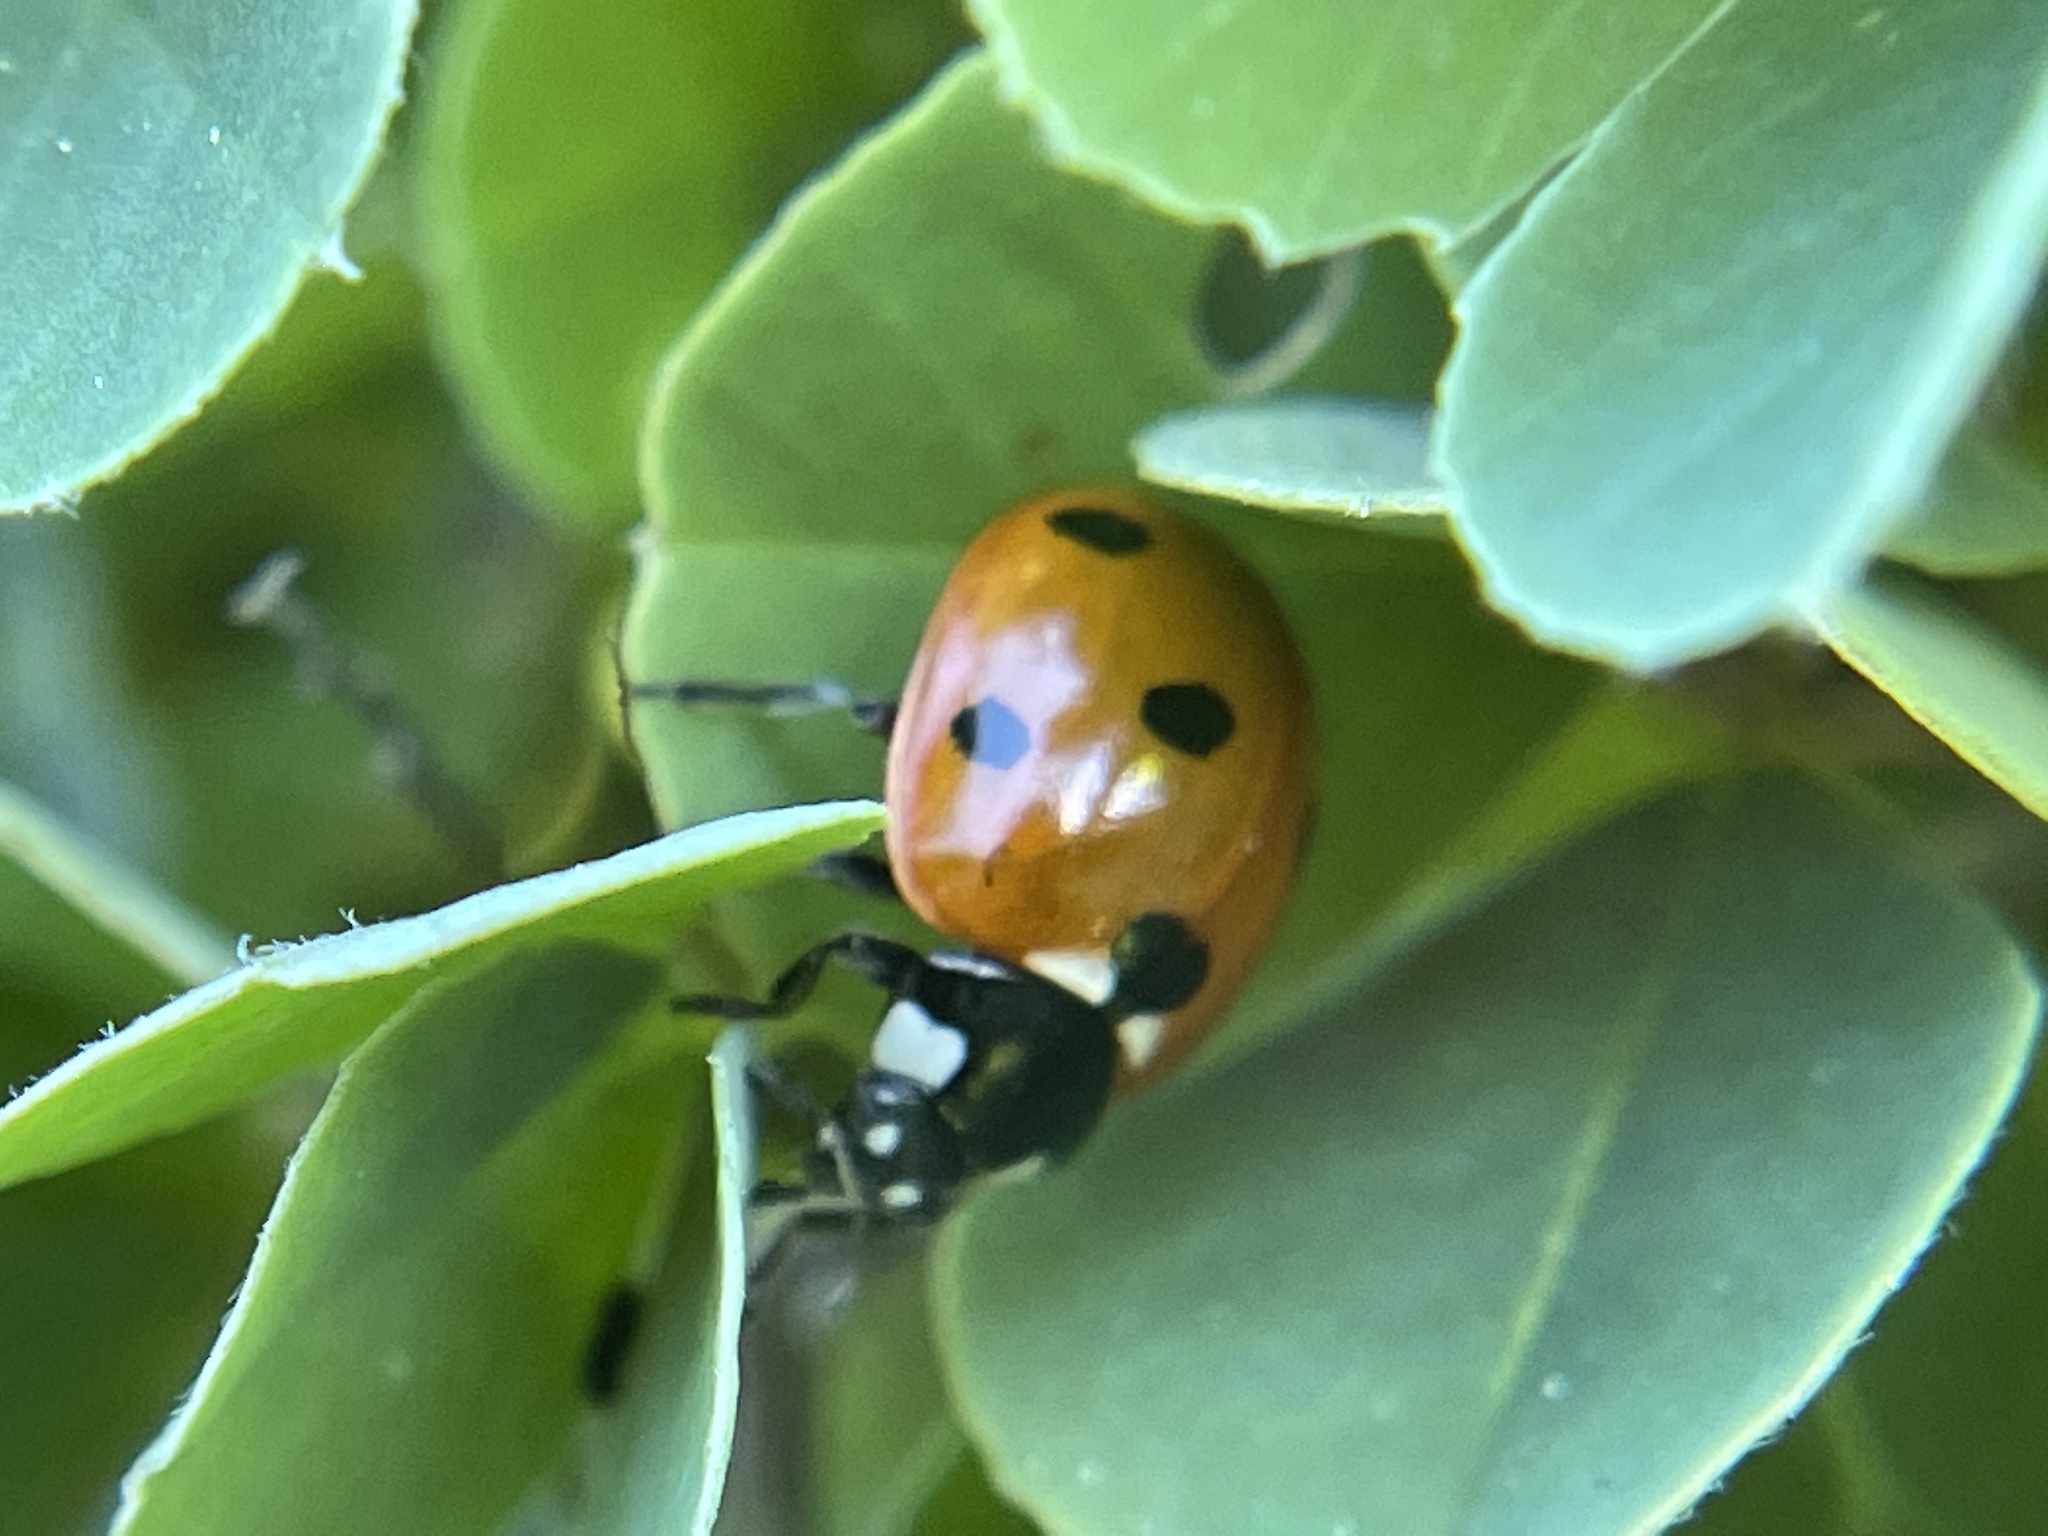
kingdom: Animalia
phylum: Arthropoda
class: Insecta
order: Coleoptera
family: Coccinellidae
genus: Coccinella
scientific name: Coccinella septempunctata
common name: Sevenspotted lady beetle
